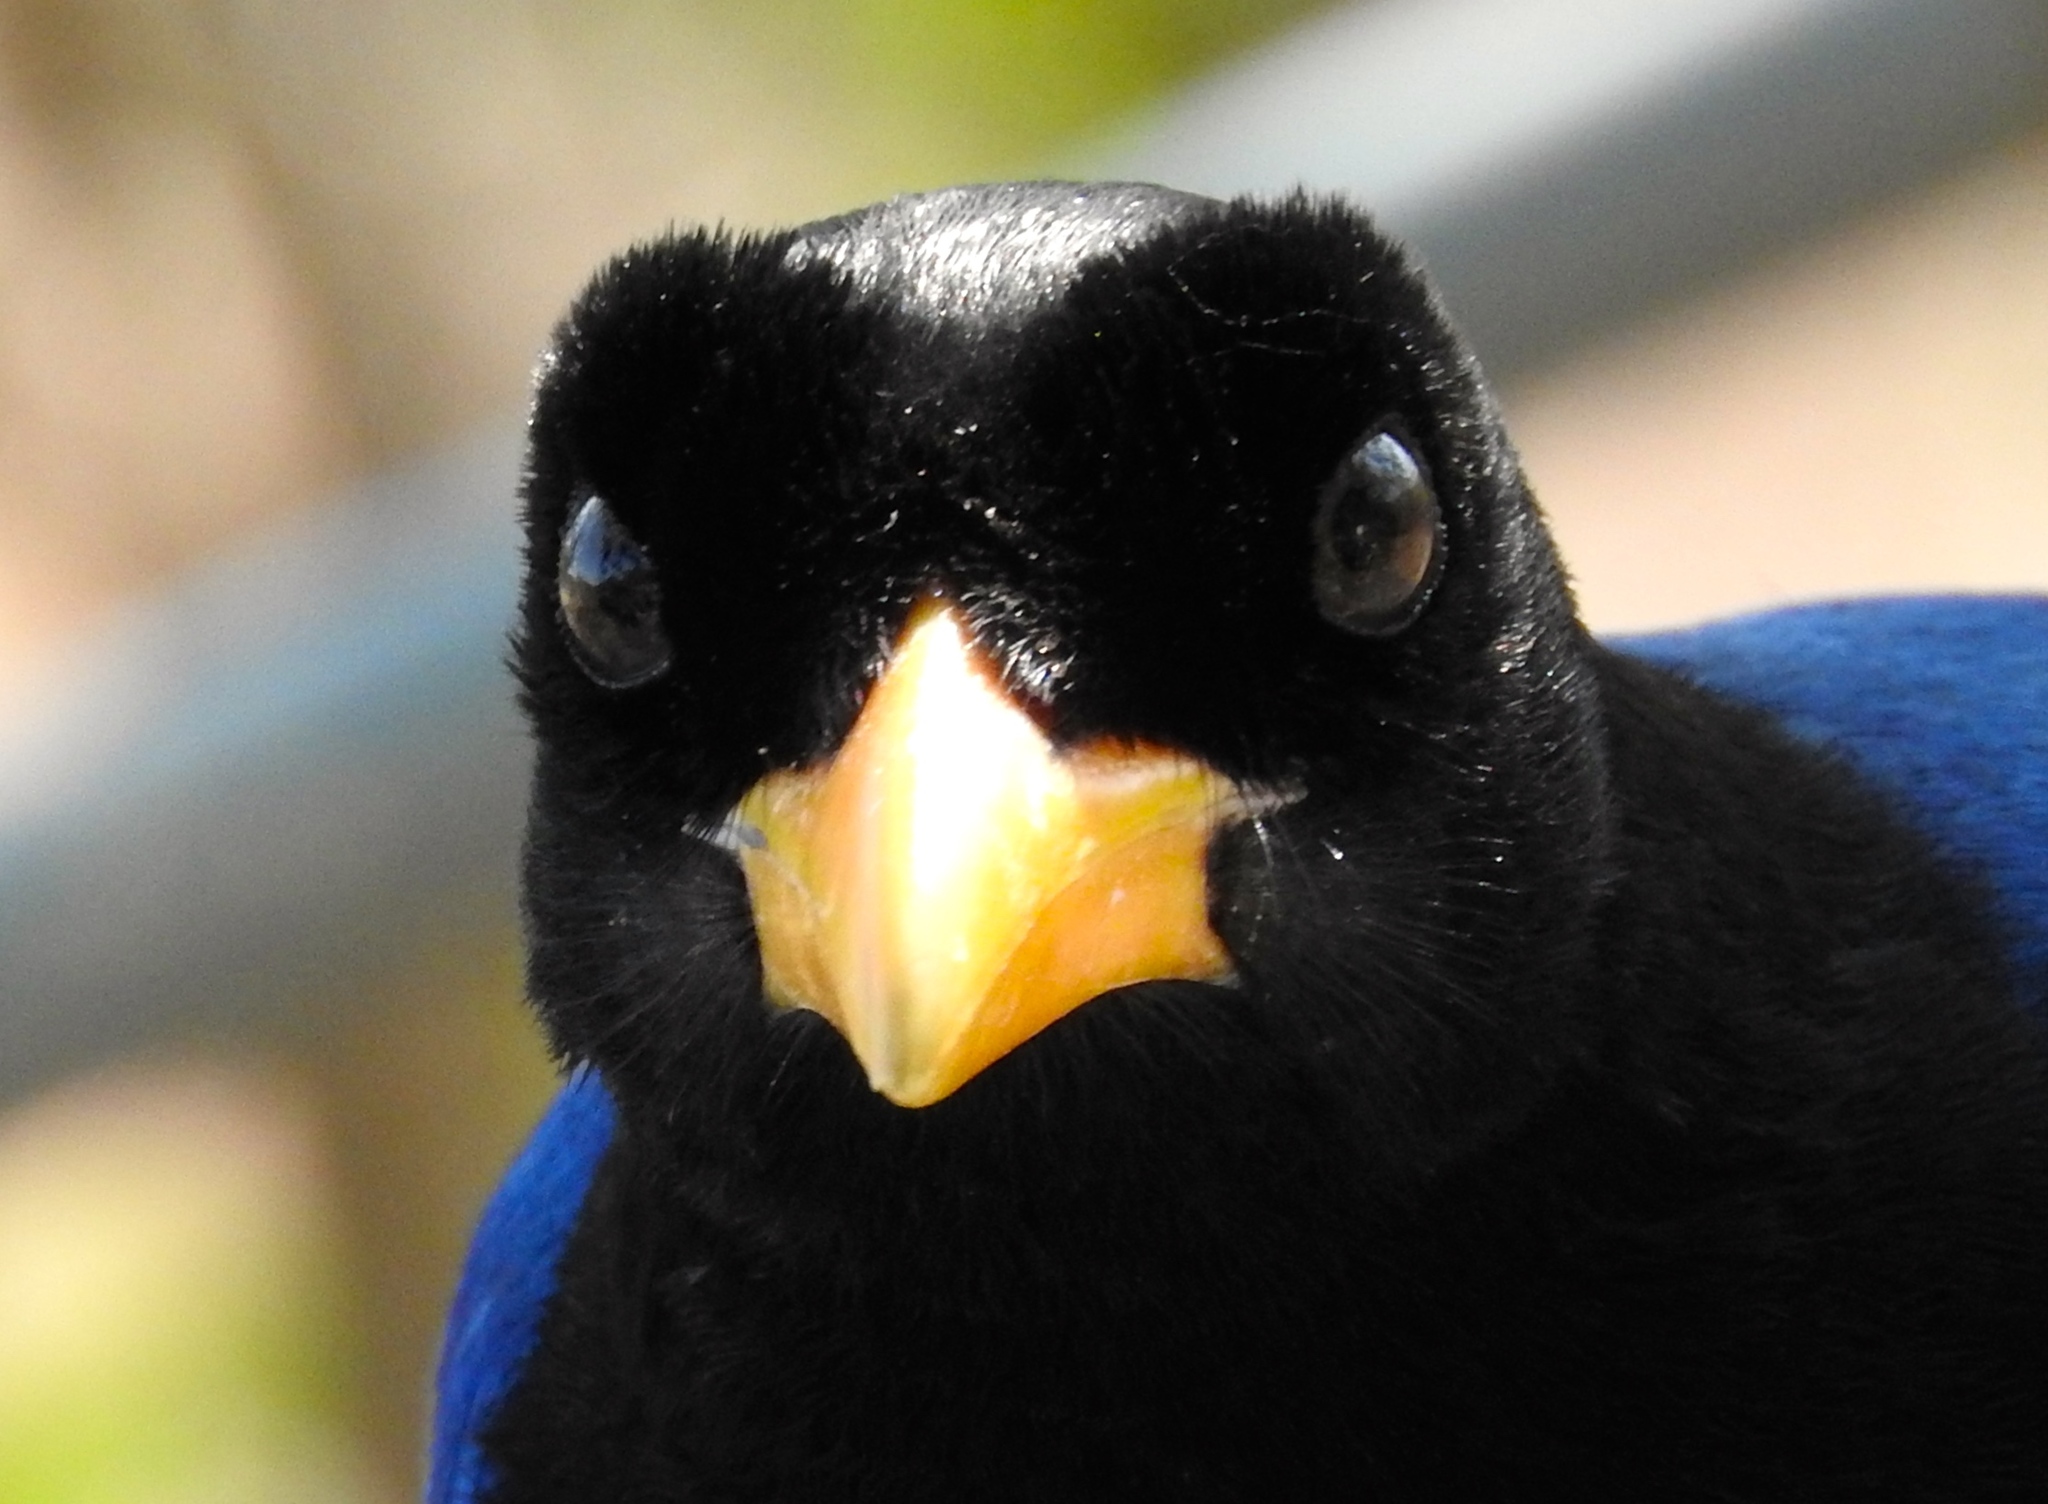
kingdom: Animalia
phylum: Chordata
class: Aves
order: Passeriformes
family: Corvidae
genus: Cyanocorax
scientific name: Cyanocorax beecheii
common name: Purplish-backed jay
